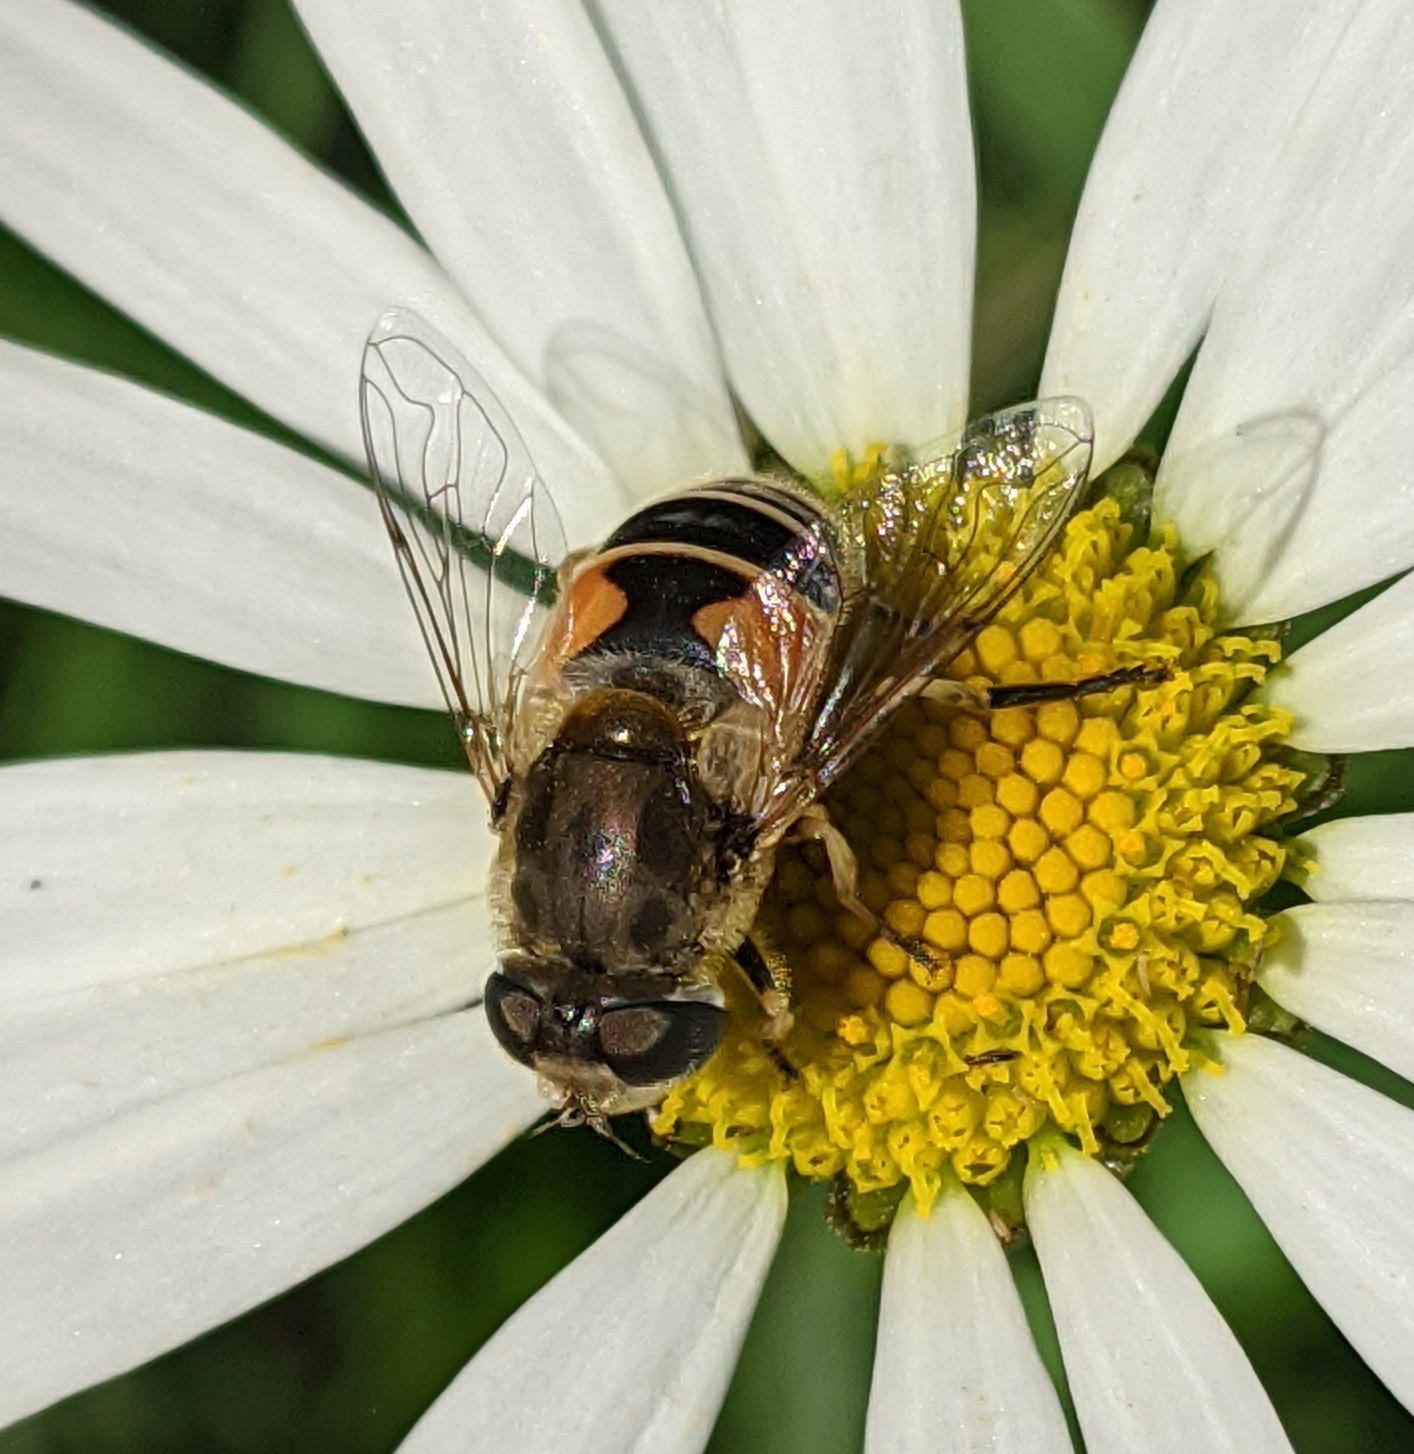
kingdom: Animalia
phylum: Arthropoda
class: Insecta
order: Diptera
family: Syrphidae
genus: Eristalis
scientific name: Eristalis arbustorum
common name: Hover fly
